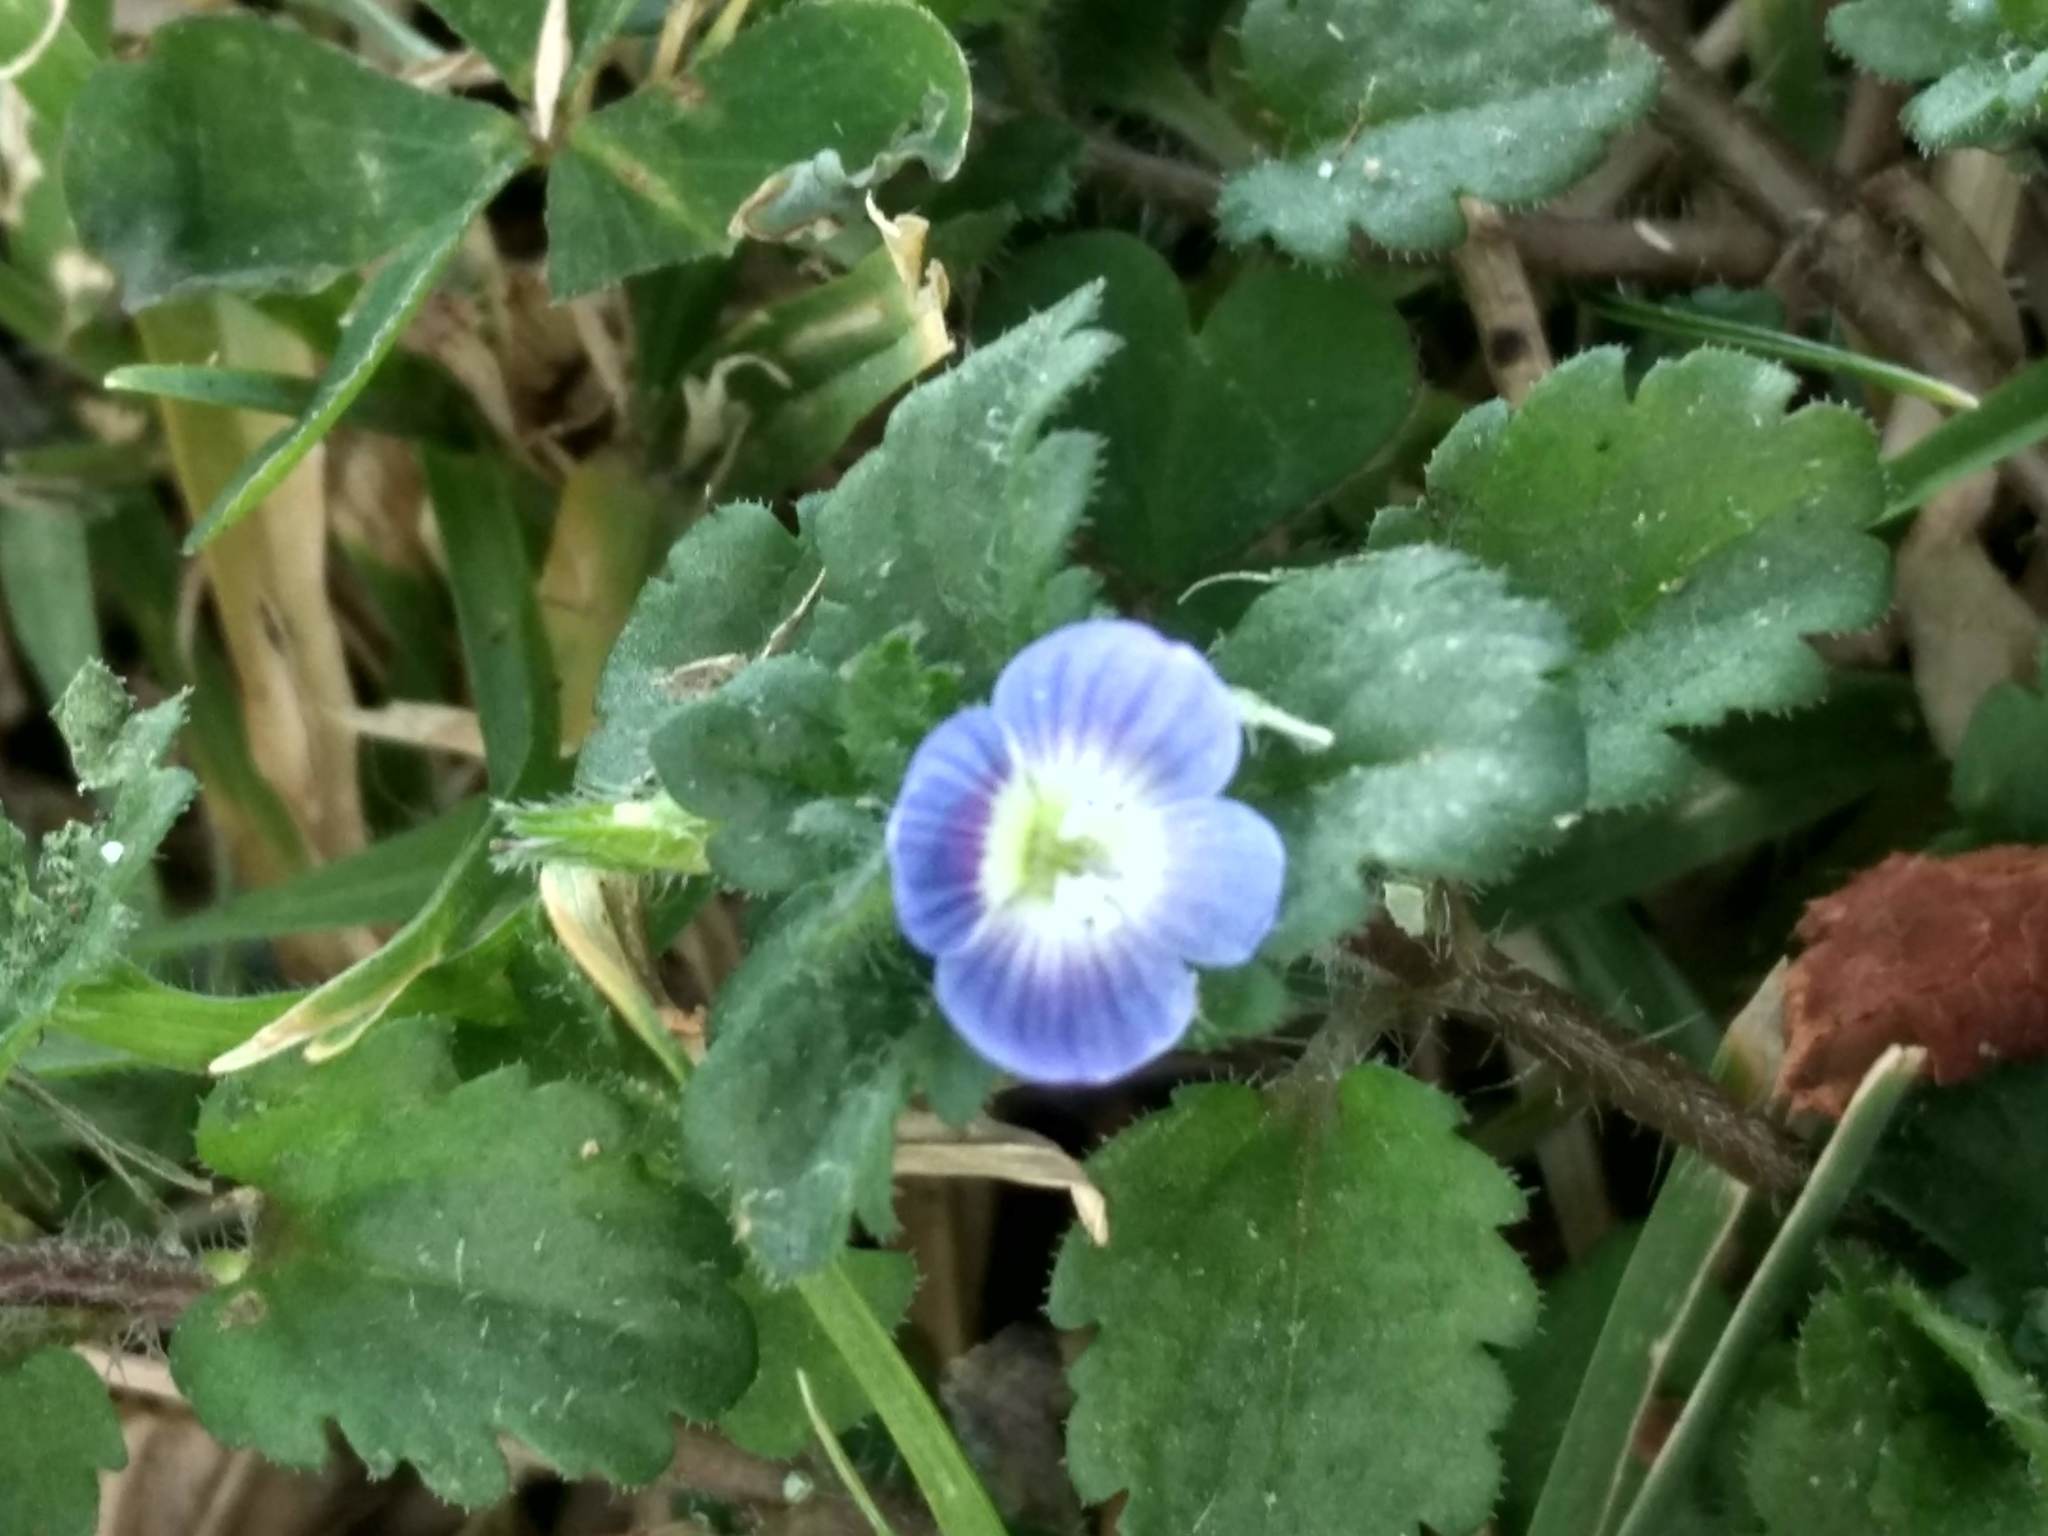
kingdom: Plantae
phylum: Tracheophyta
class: Magnoliopsida
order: Lamiales
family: Plantaginaceae
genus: Veronica
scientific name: Veronica persica
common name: Common field-speedwell
